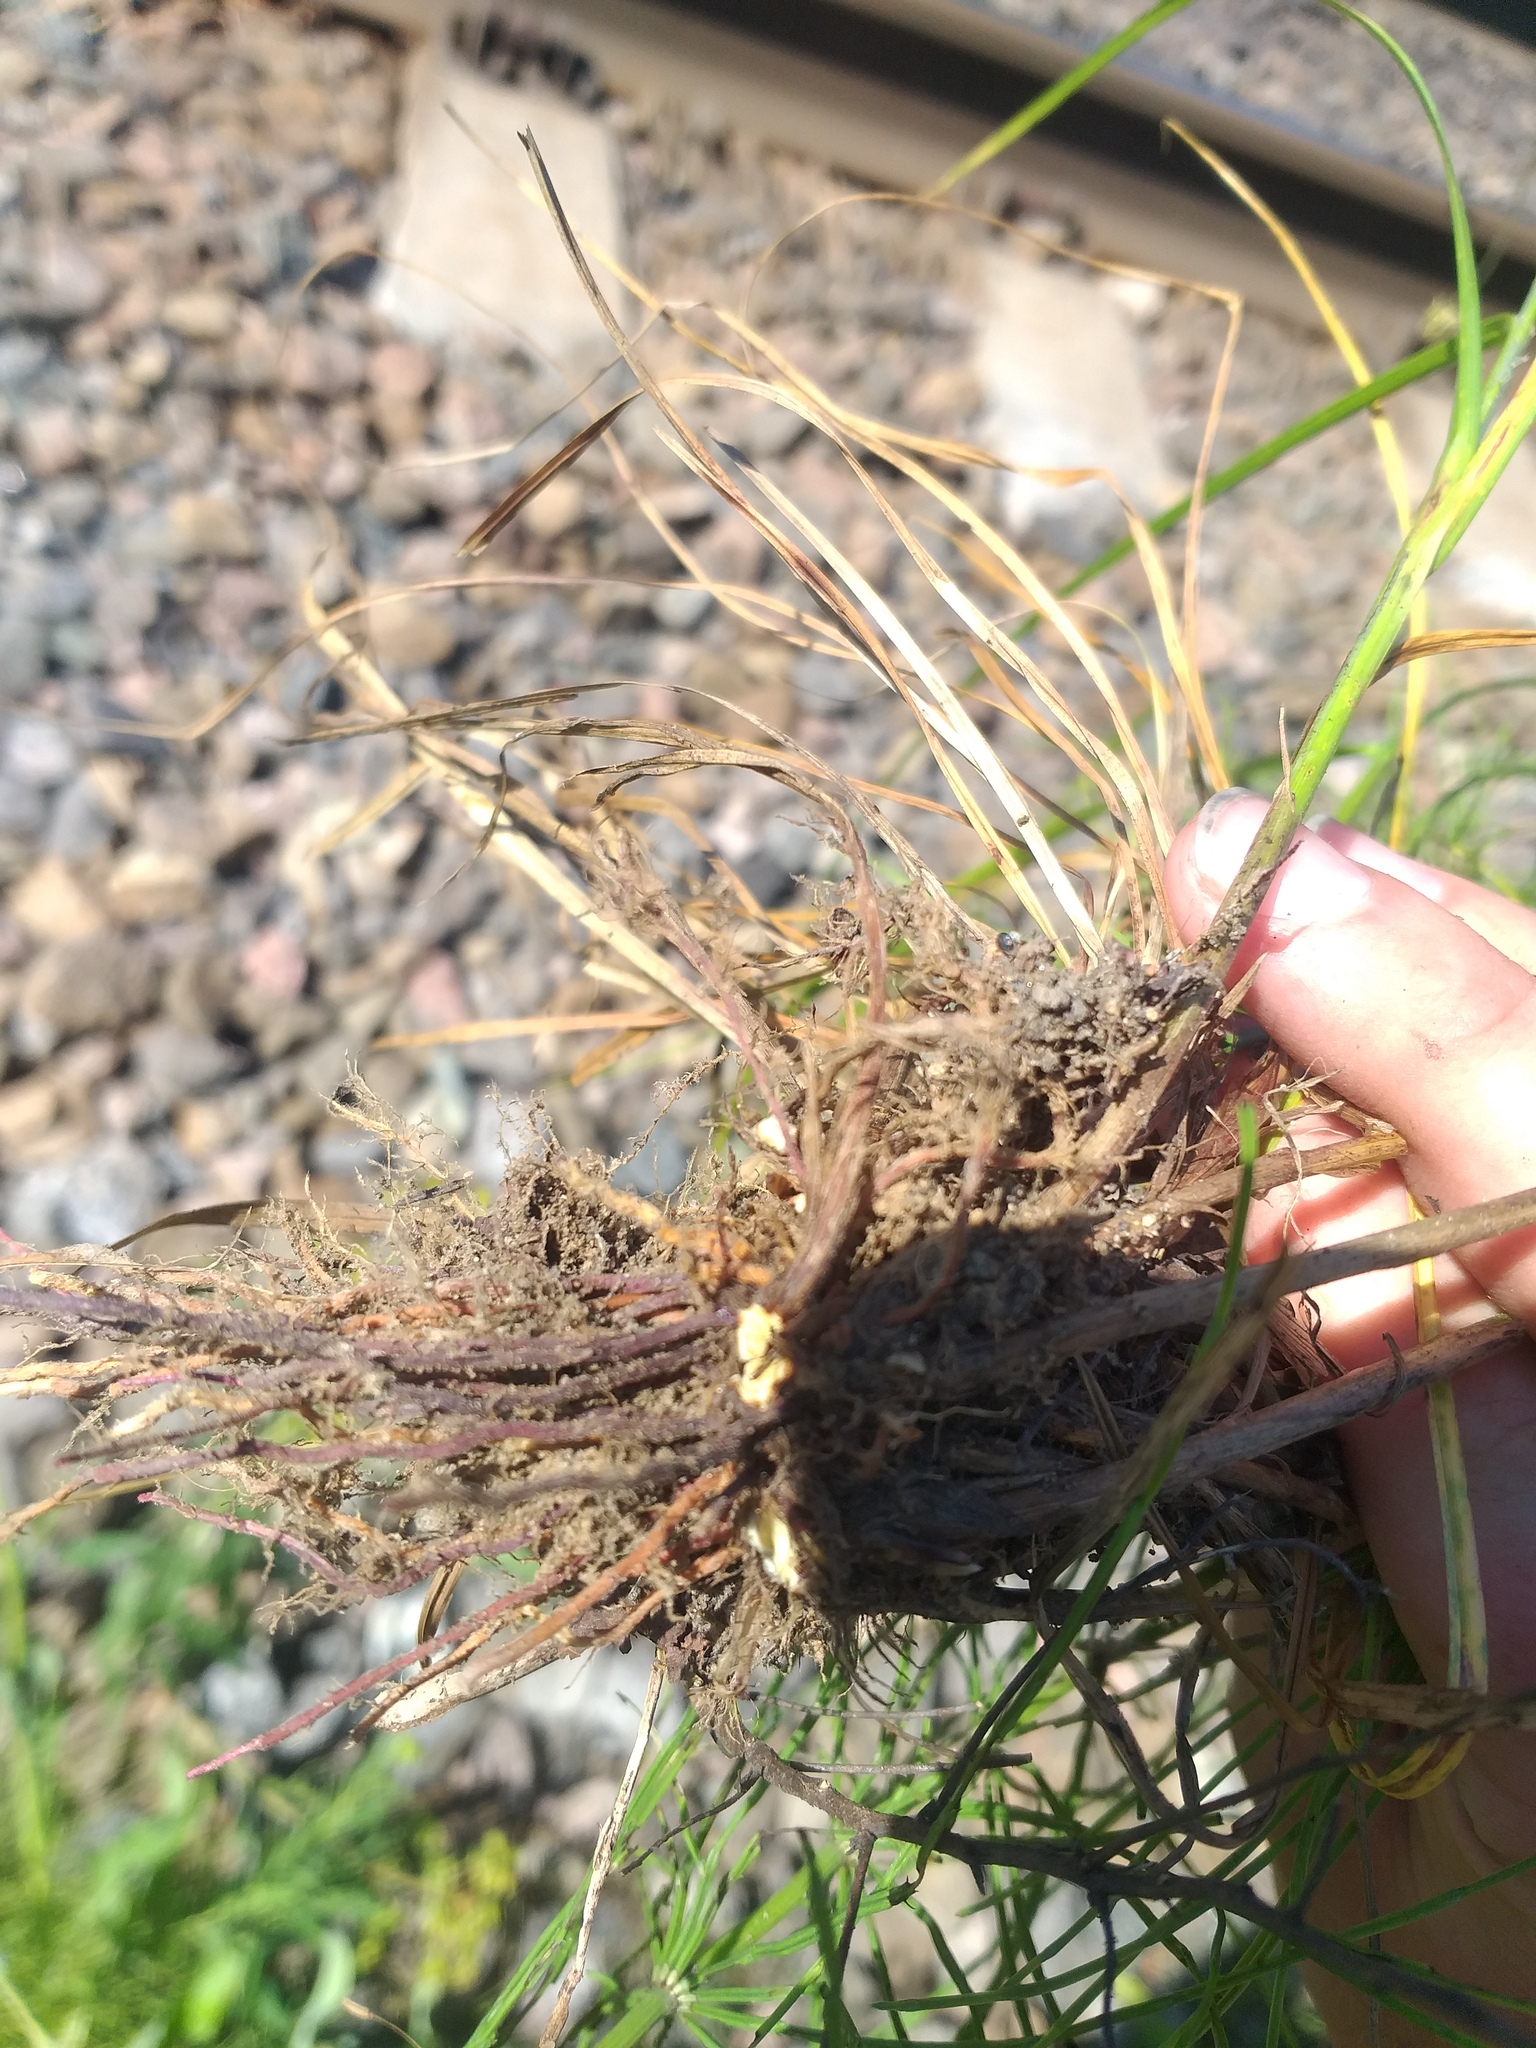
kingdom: Plantae
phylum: Tracheophyta
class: Liliopsida
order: Poales
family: Cyperaceae
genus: Carex
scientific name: Carex spicata
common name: Spiked sedge
